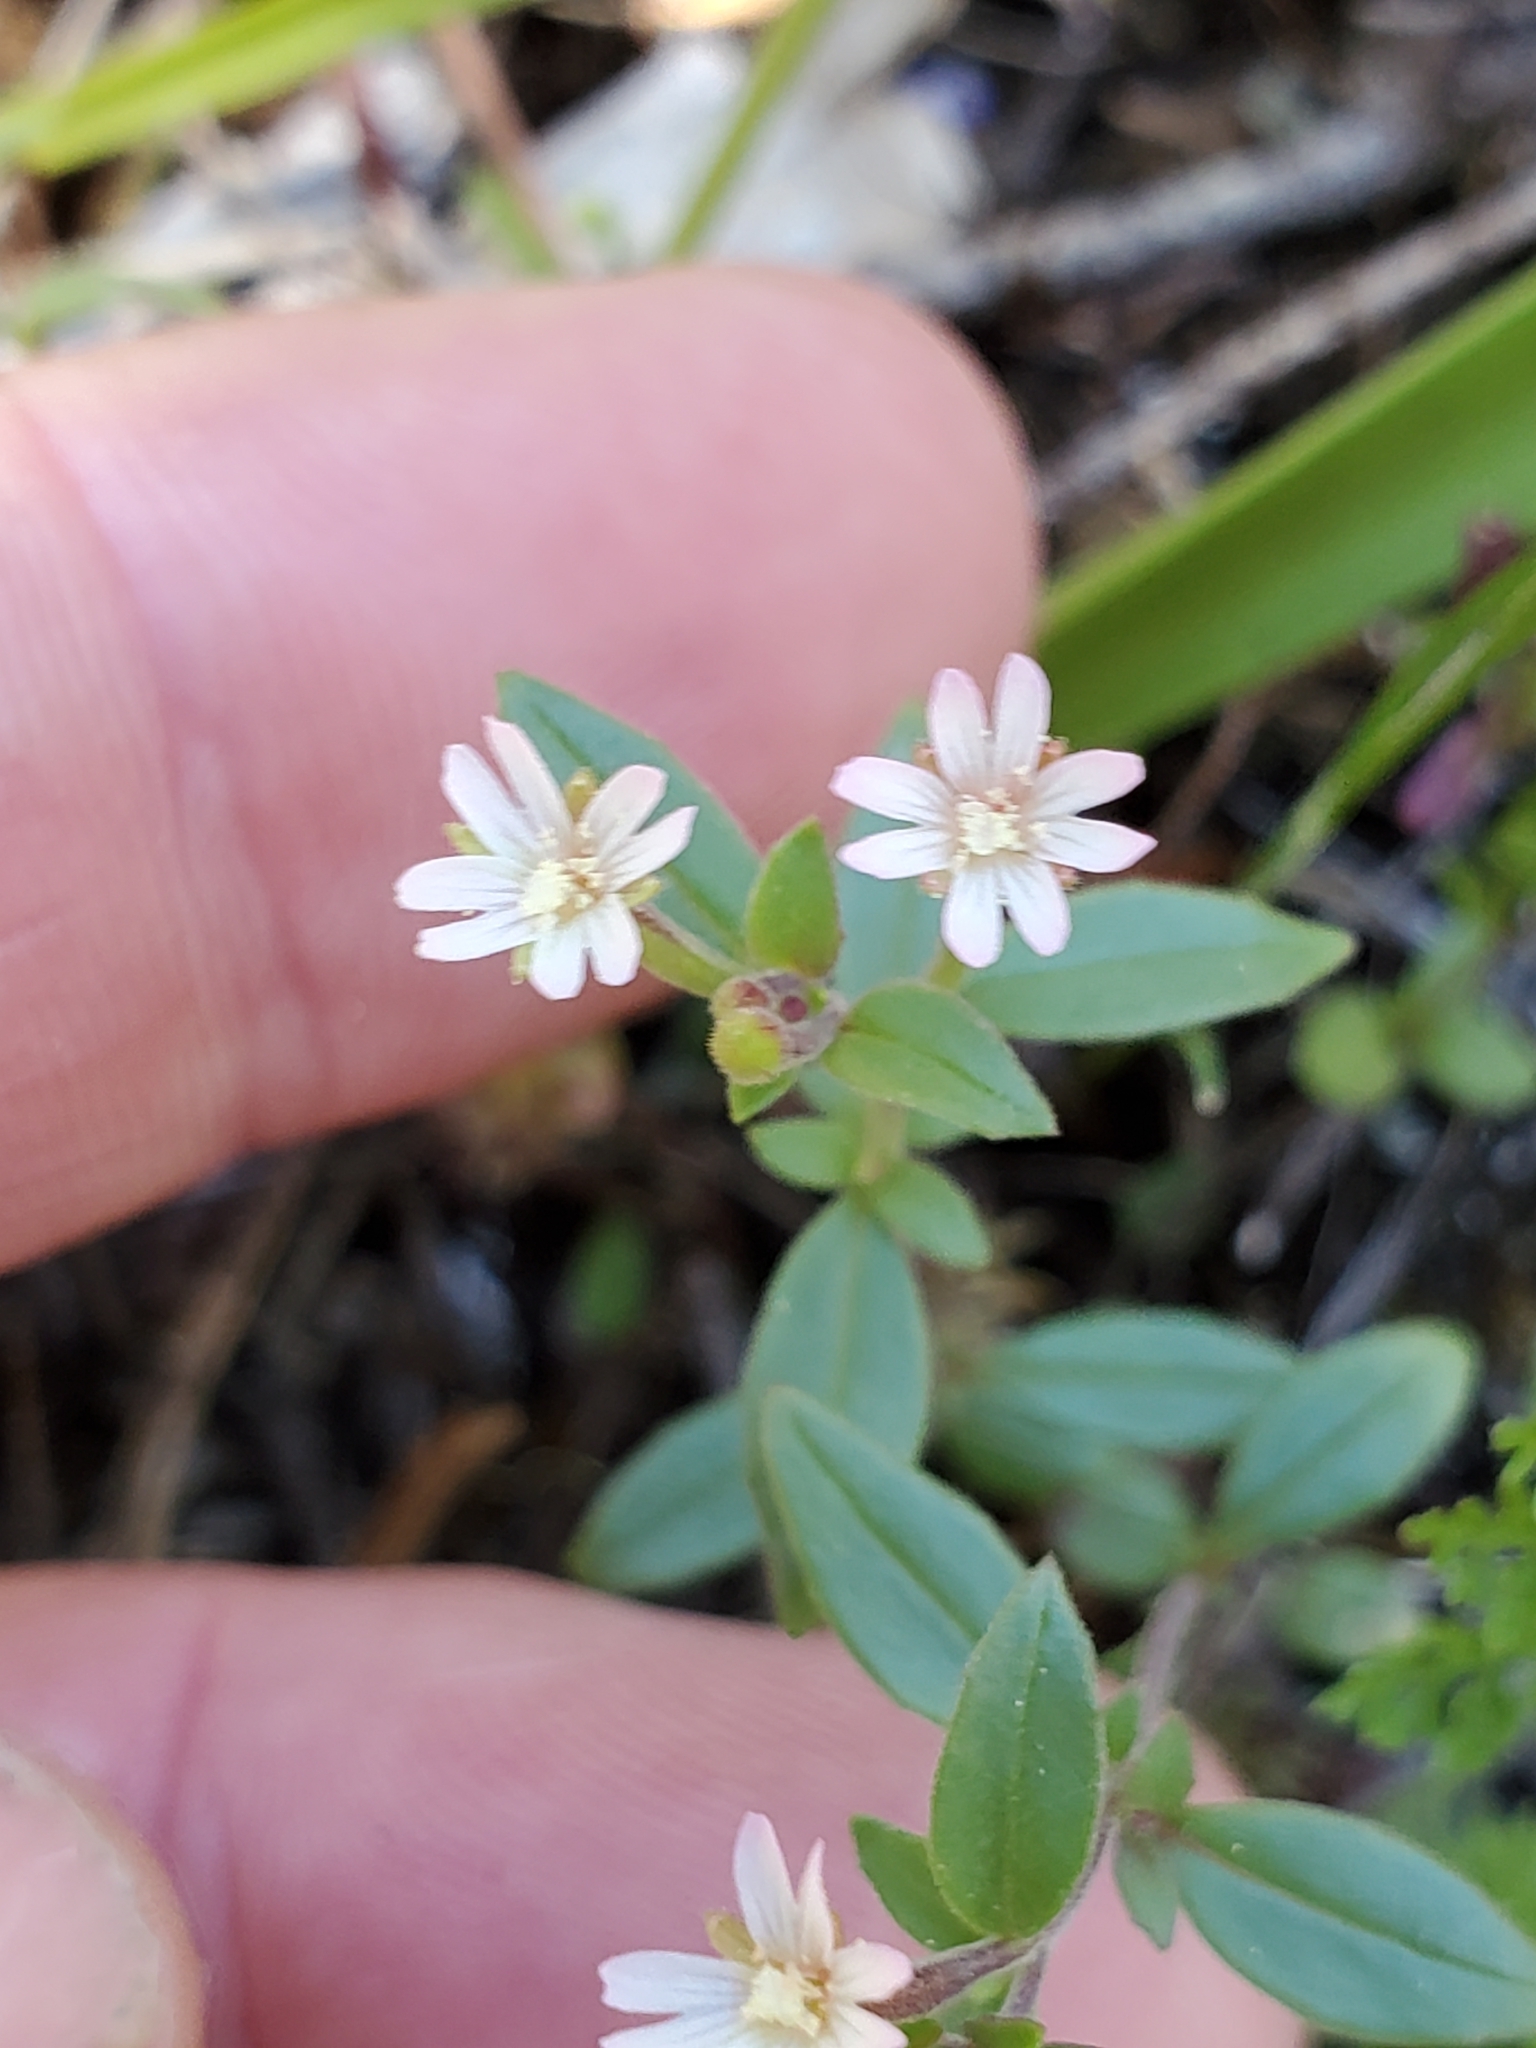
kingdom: Plantae
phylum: Tracheophyta
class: Magnoliopsida
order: Myrtales
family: Onagraceae
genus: Epilobium
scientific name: Epilobium minutum
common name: Chaparral willowherb
